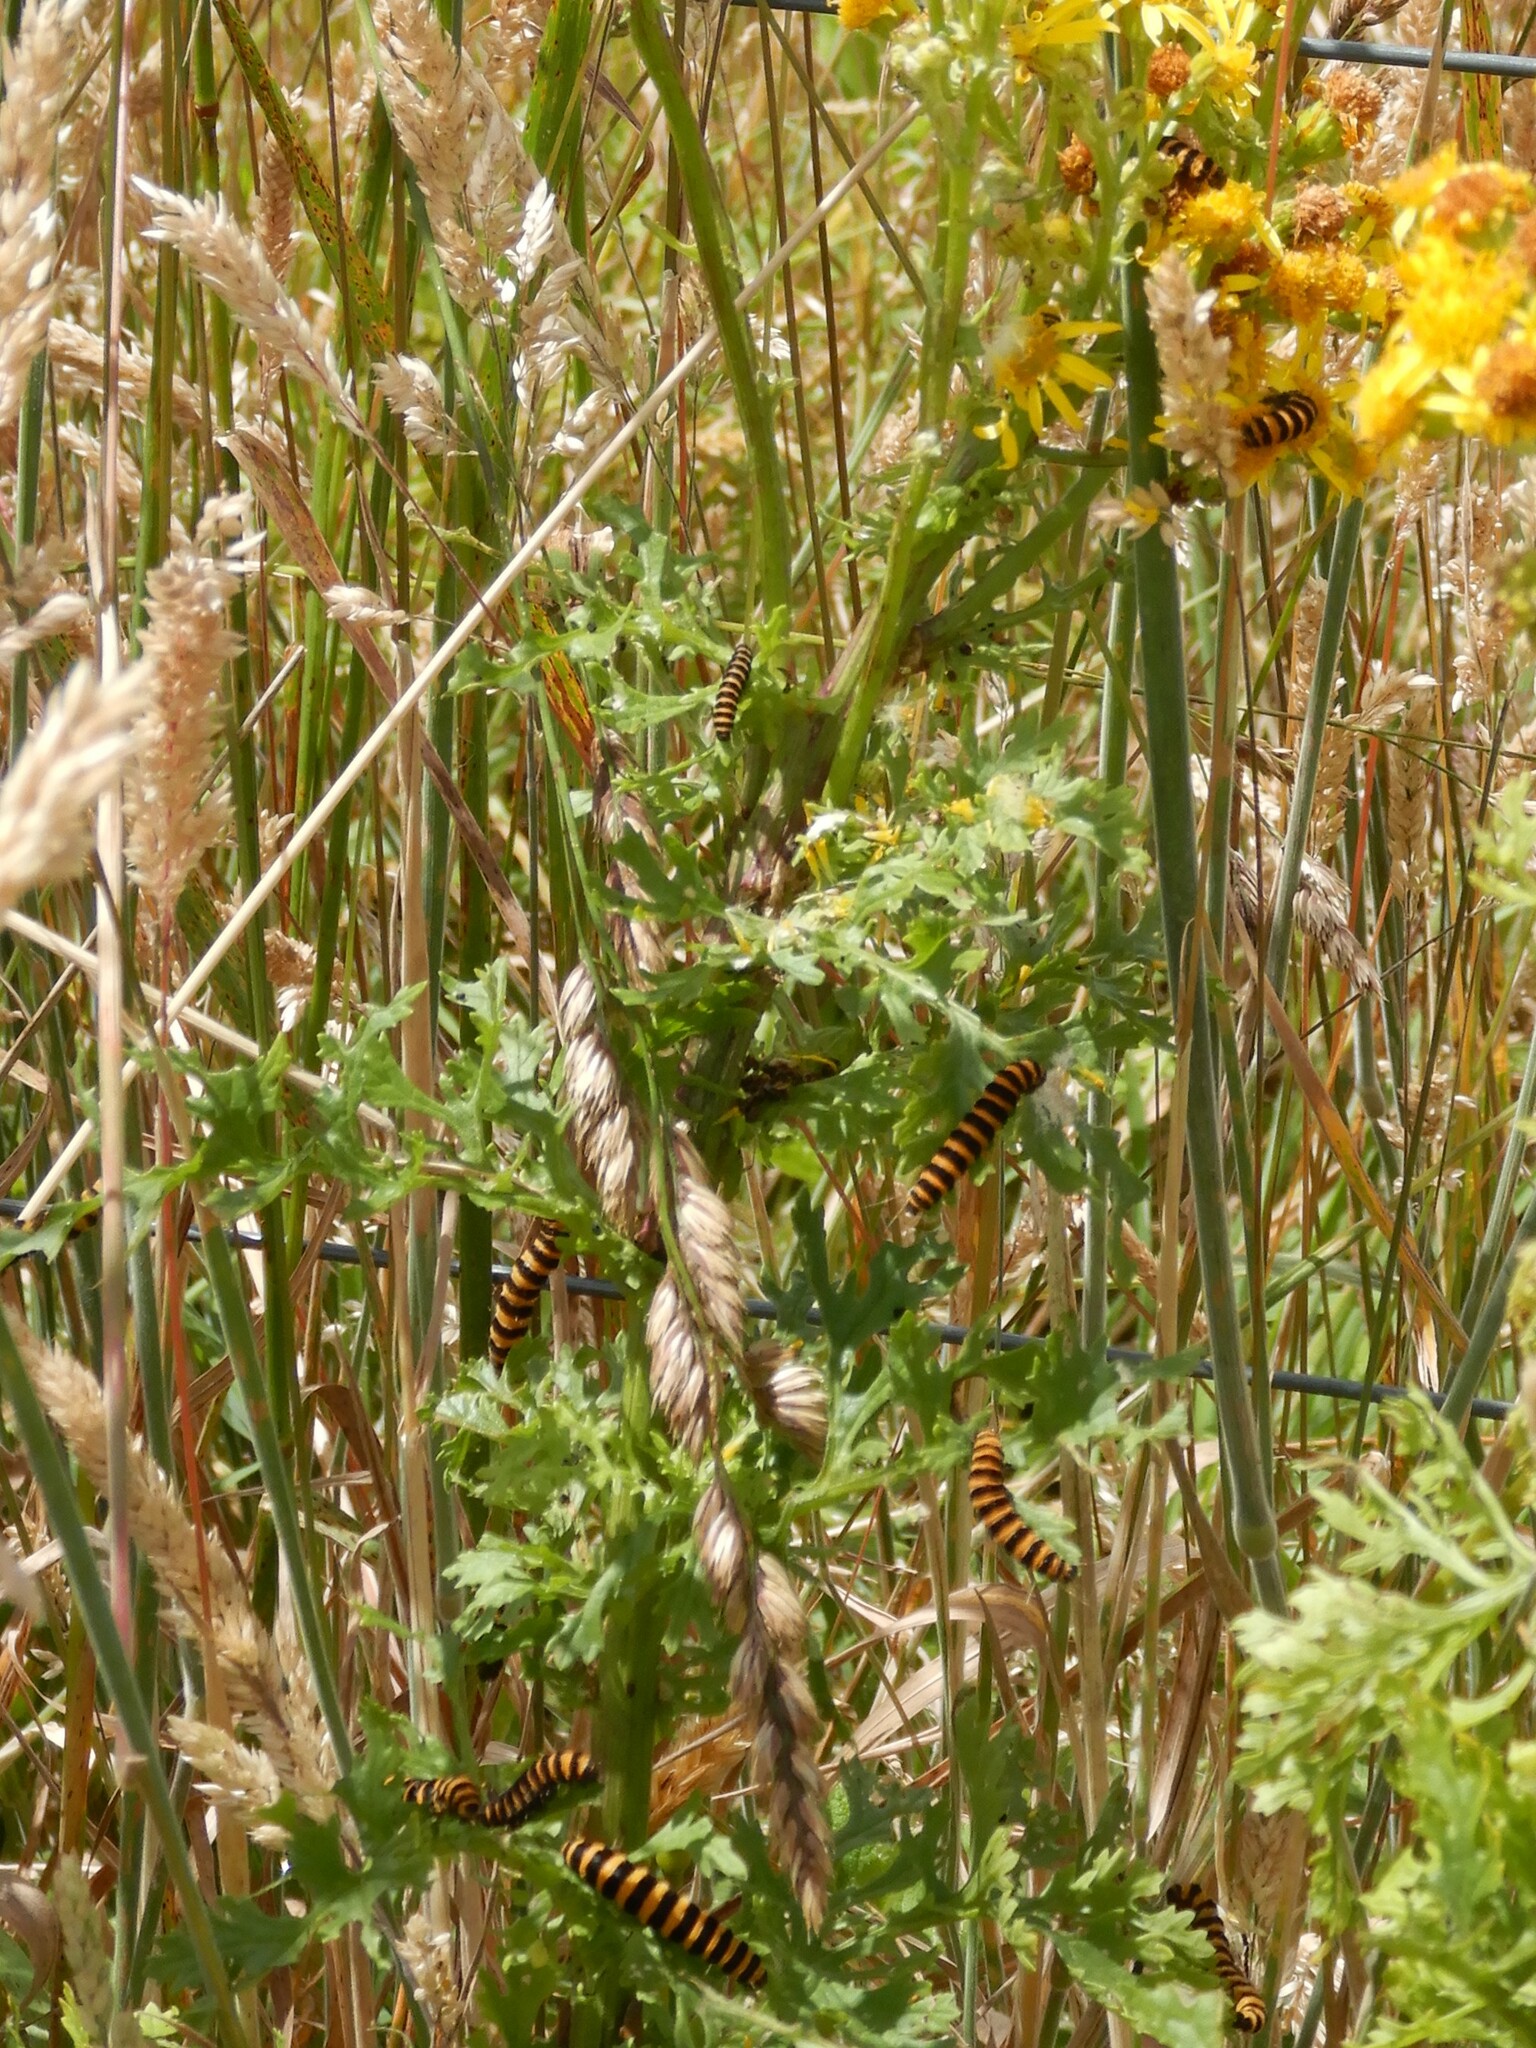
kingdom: Animalia
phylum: Arthropoda
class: Insecta
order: Lepidoptera
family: Erebidae
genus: Tyria
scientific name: Tyria jacobaeae
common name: Cinnabar
